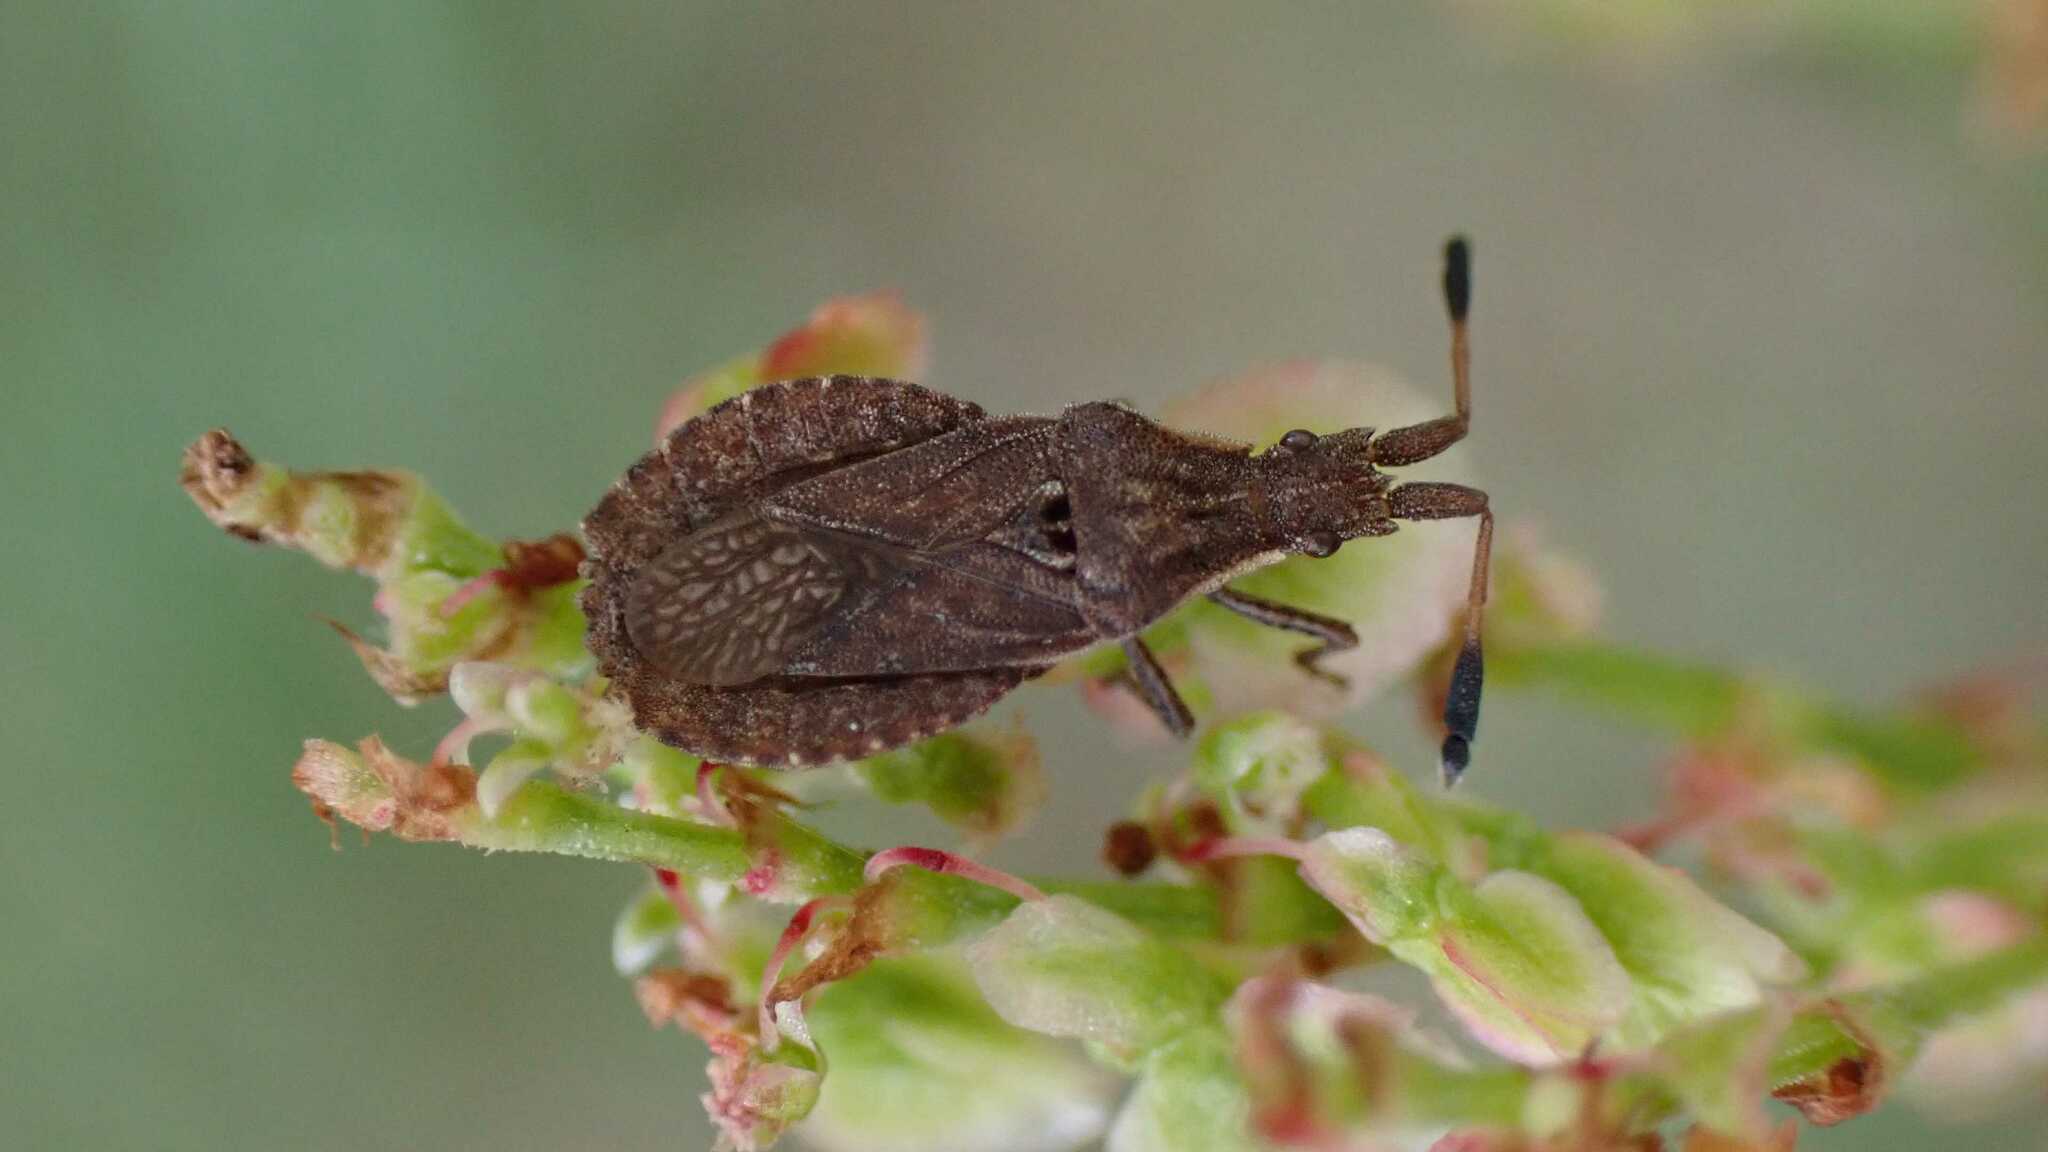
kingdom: Animalia
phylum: Arthropoda
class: Insecta
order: Hemiptera
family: Coreidae
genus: Spathocera
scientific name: Spathocera laticornis
